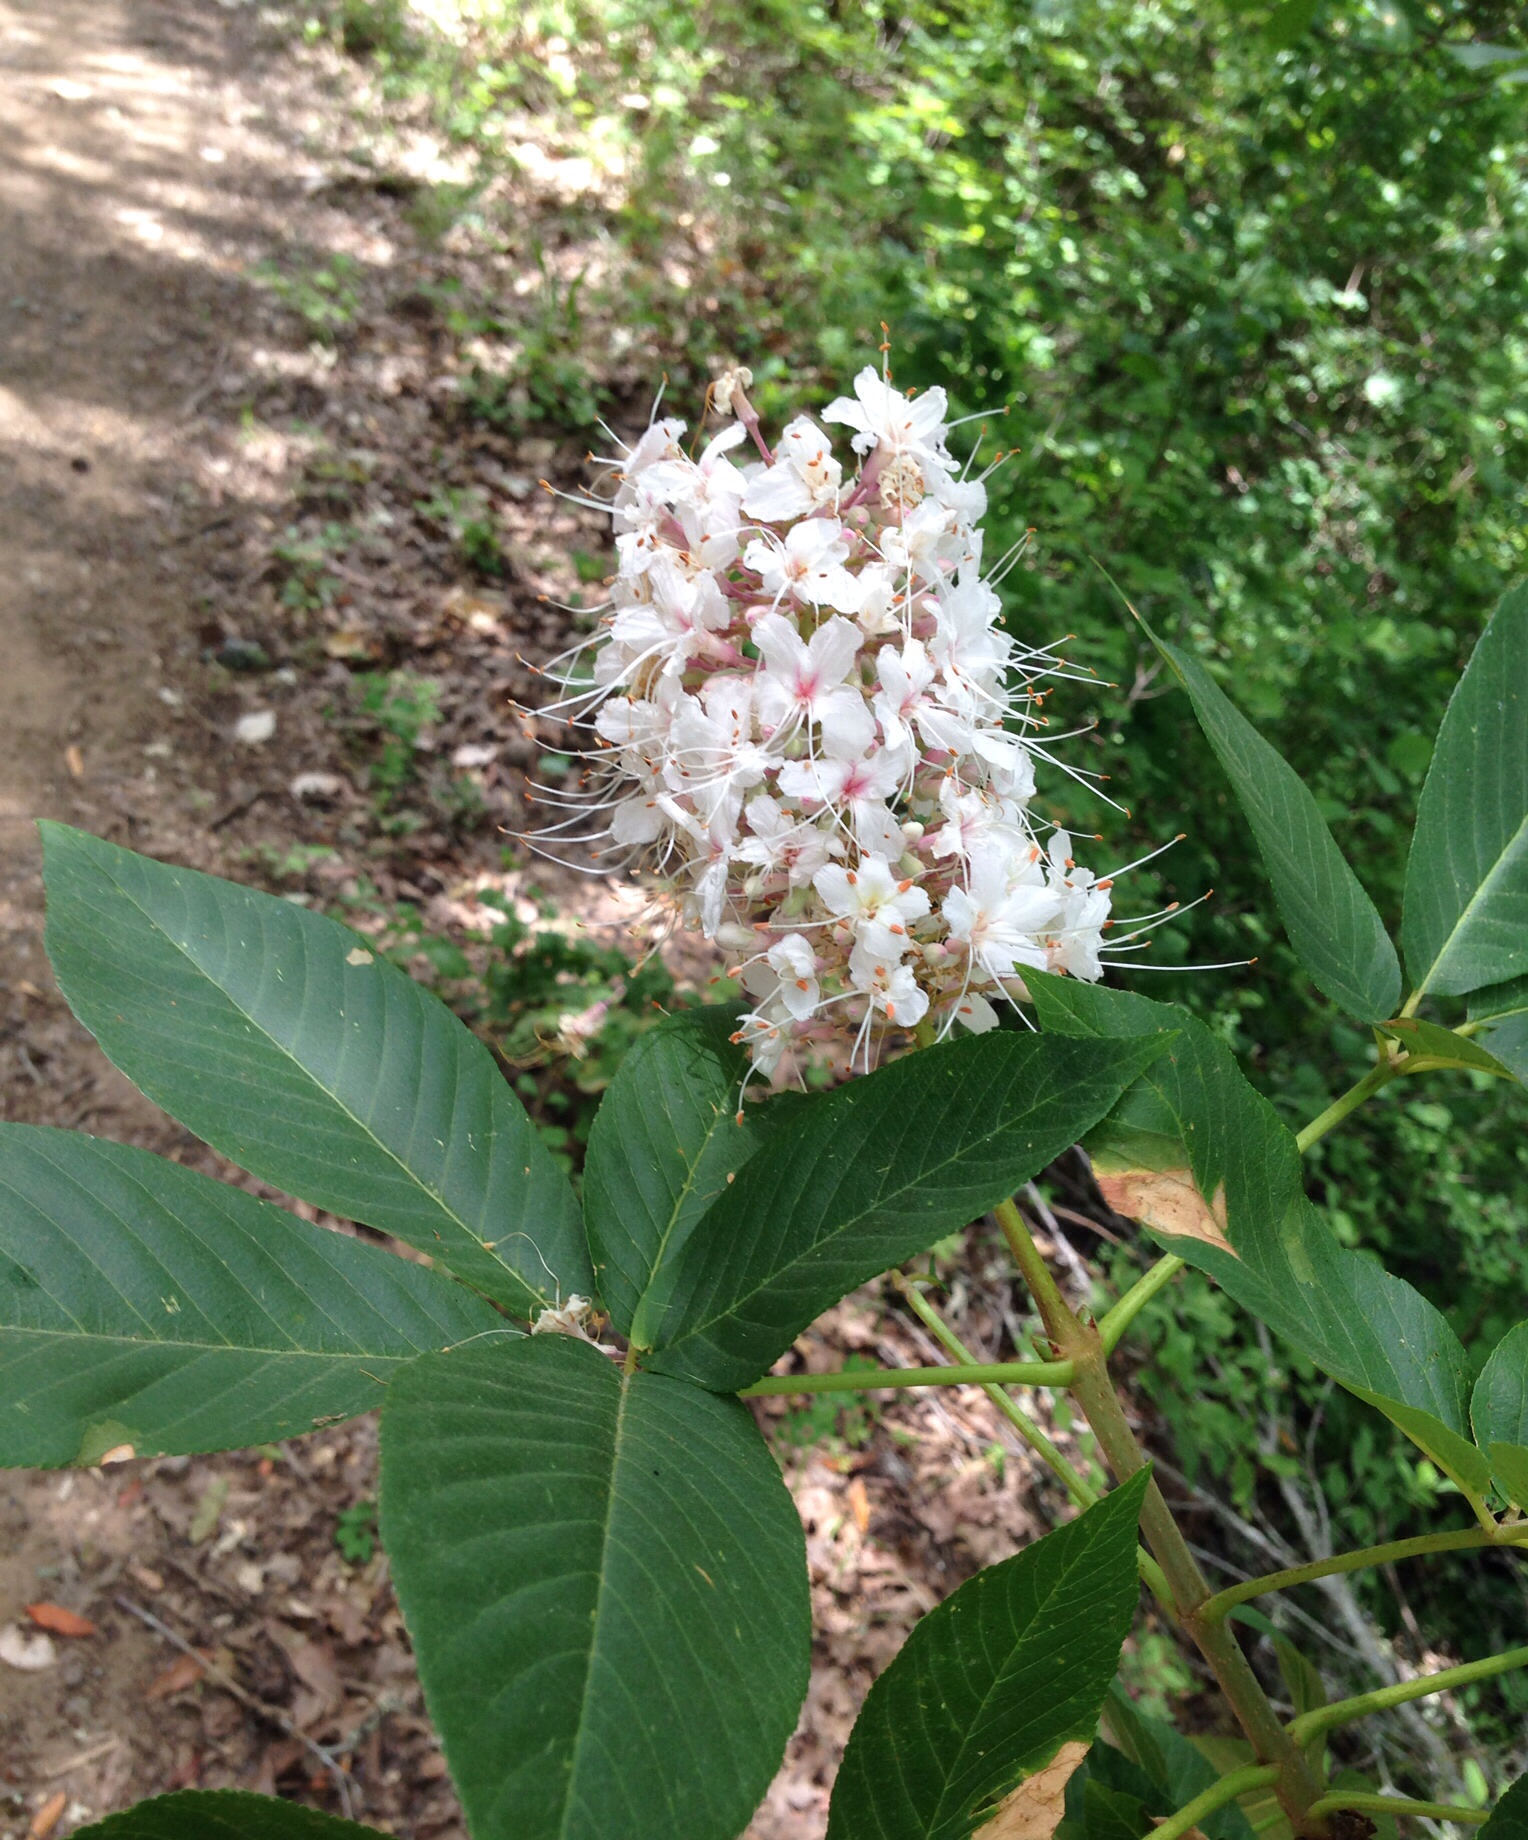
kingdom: Plantae
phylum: Tracheophyta
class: Magnoliopsida
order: Sapindales
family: Sapindaceae
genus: Aesculus
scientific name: Aesculus californica
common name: California buckeye
